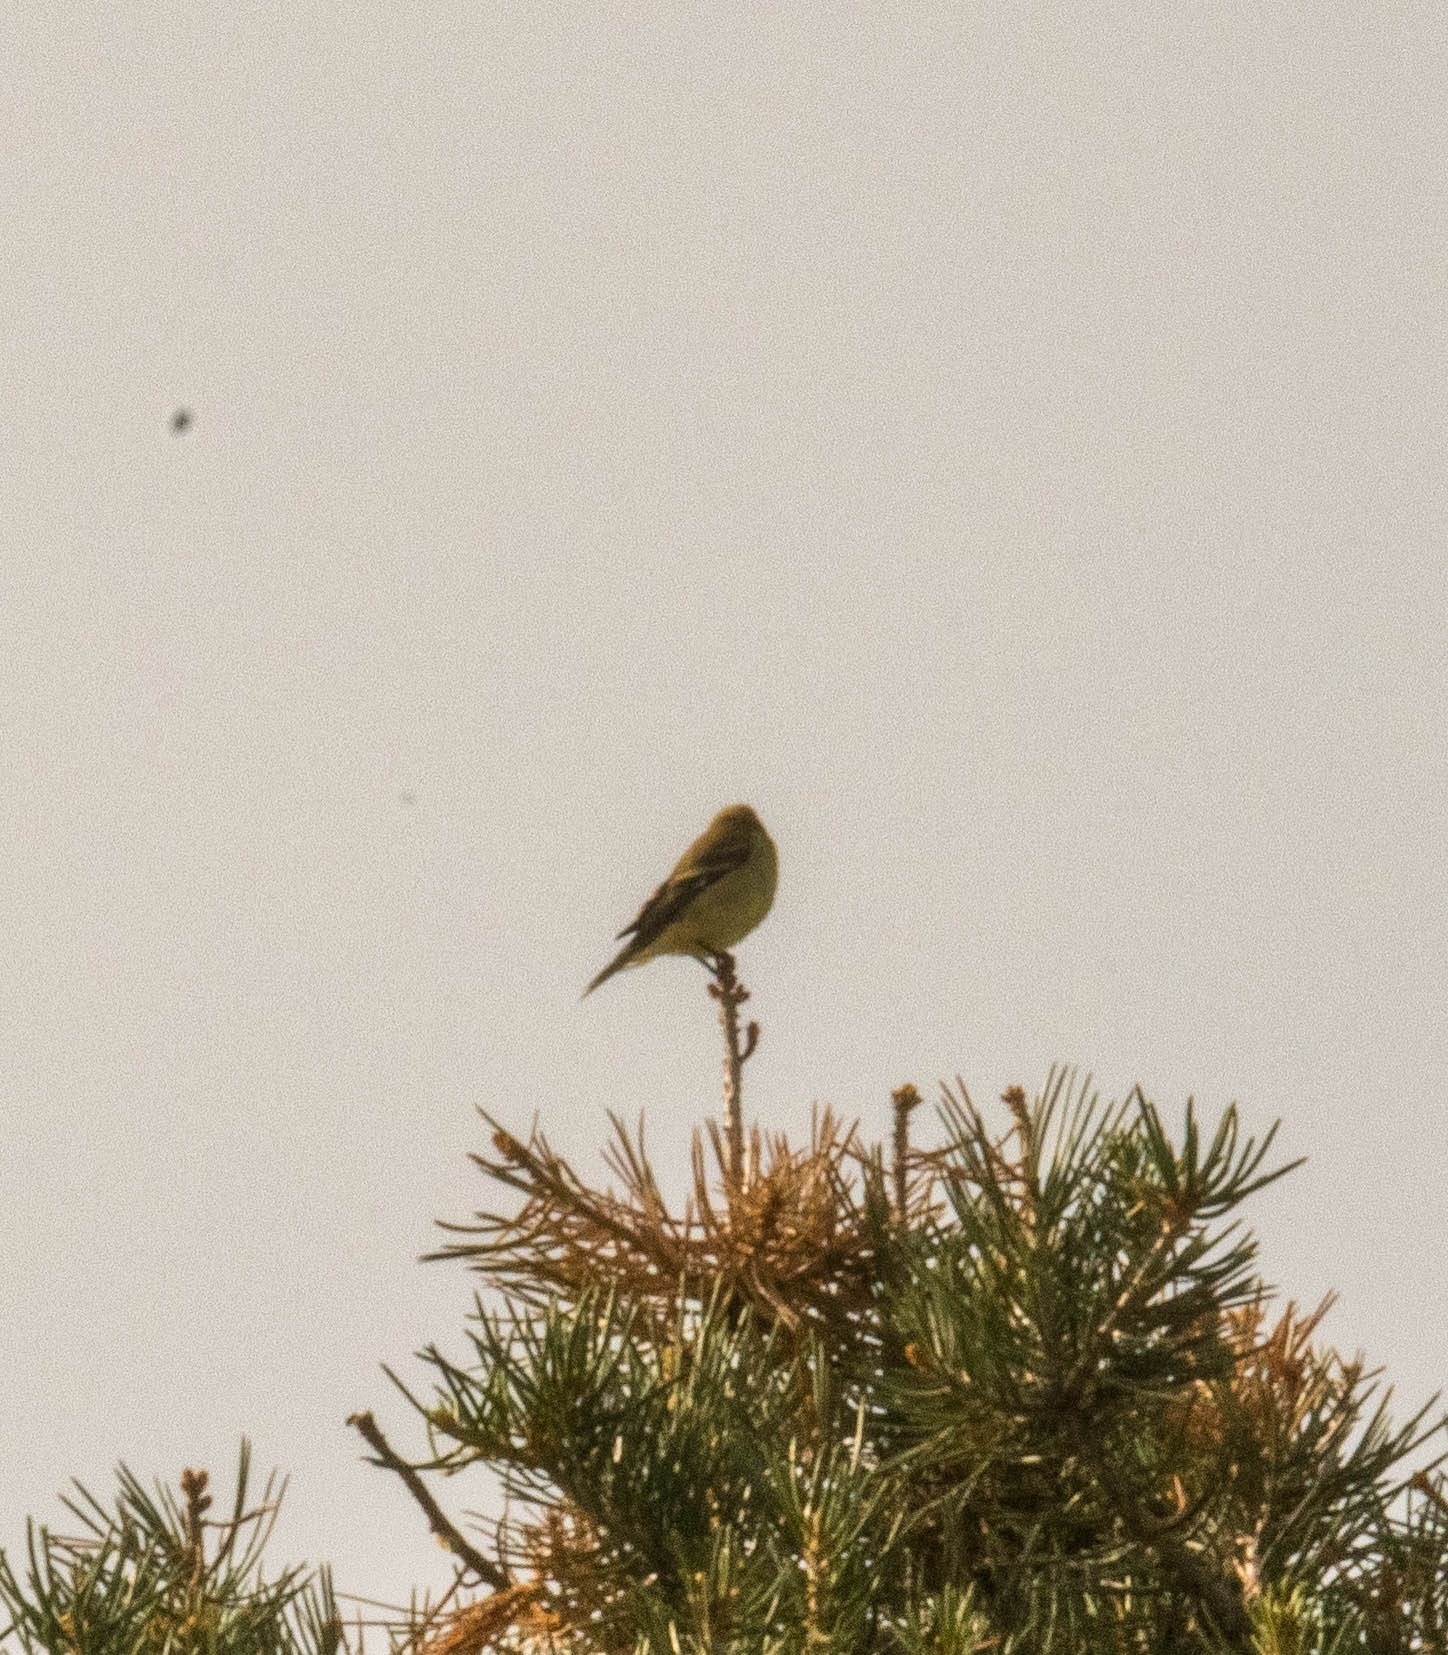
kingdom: Animalia
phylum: Chordata
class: Aves
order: Passeriformes
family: Fringillidae
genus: Haemorhous
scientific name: Haemorhous mexicanus
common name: House finch
